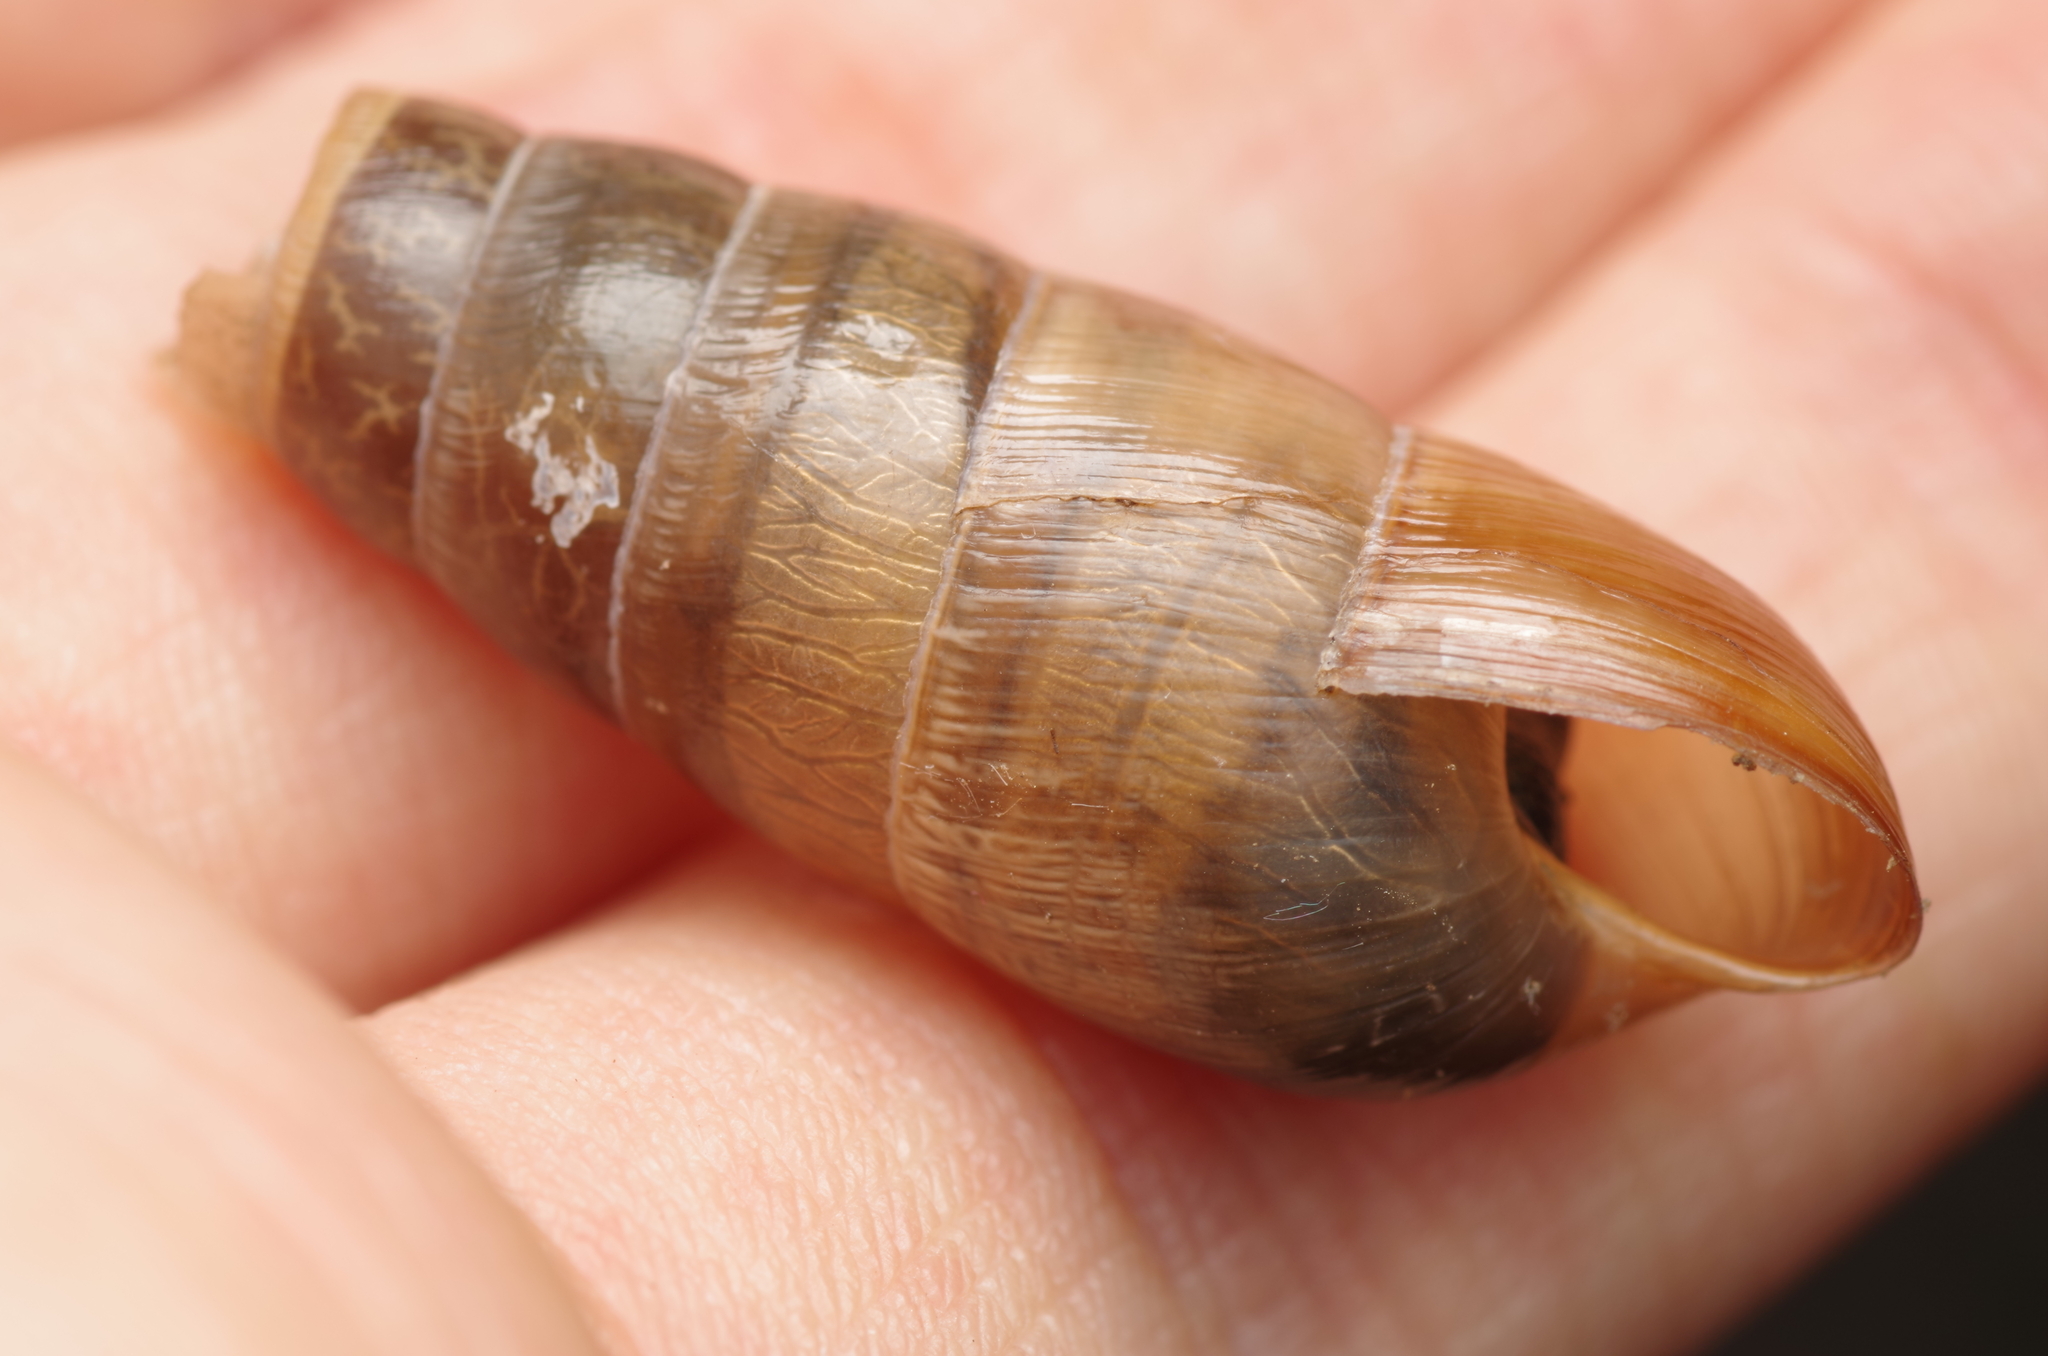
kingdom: Animalia
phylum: Mollusca
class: Gastropoda
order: Stylommatophora
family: Achatinidae
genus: Rumina
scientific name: Rumina decollata
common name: Decollate snail
